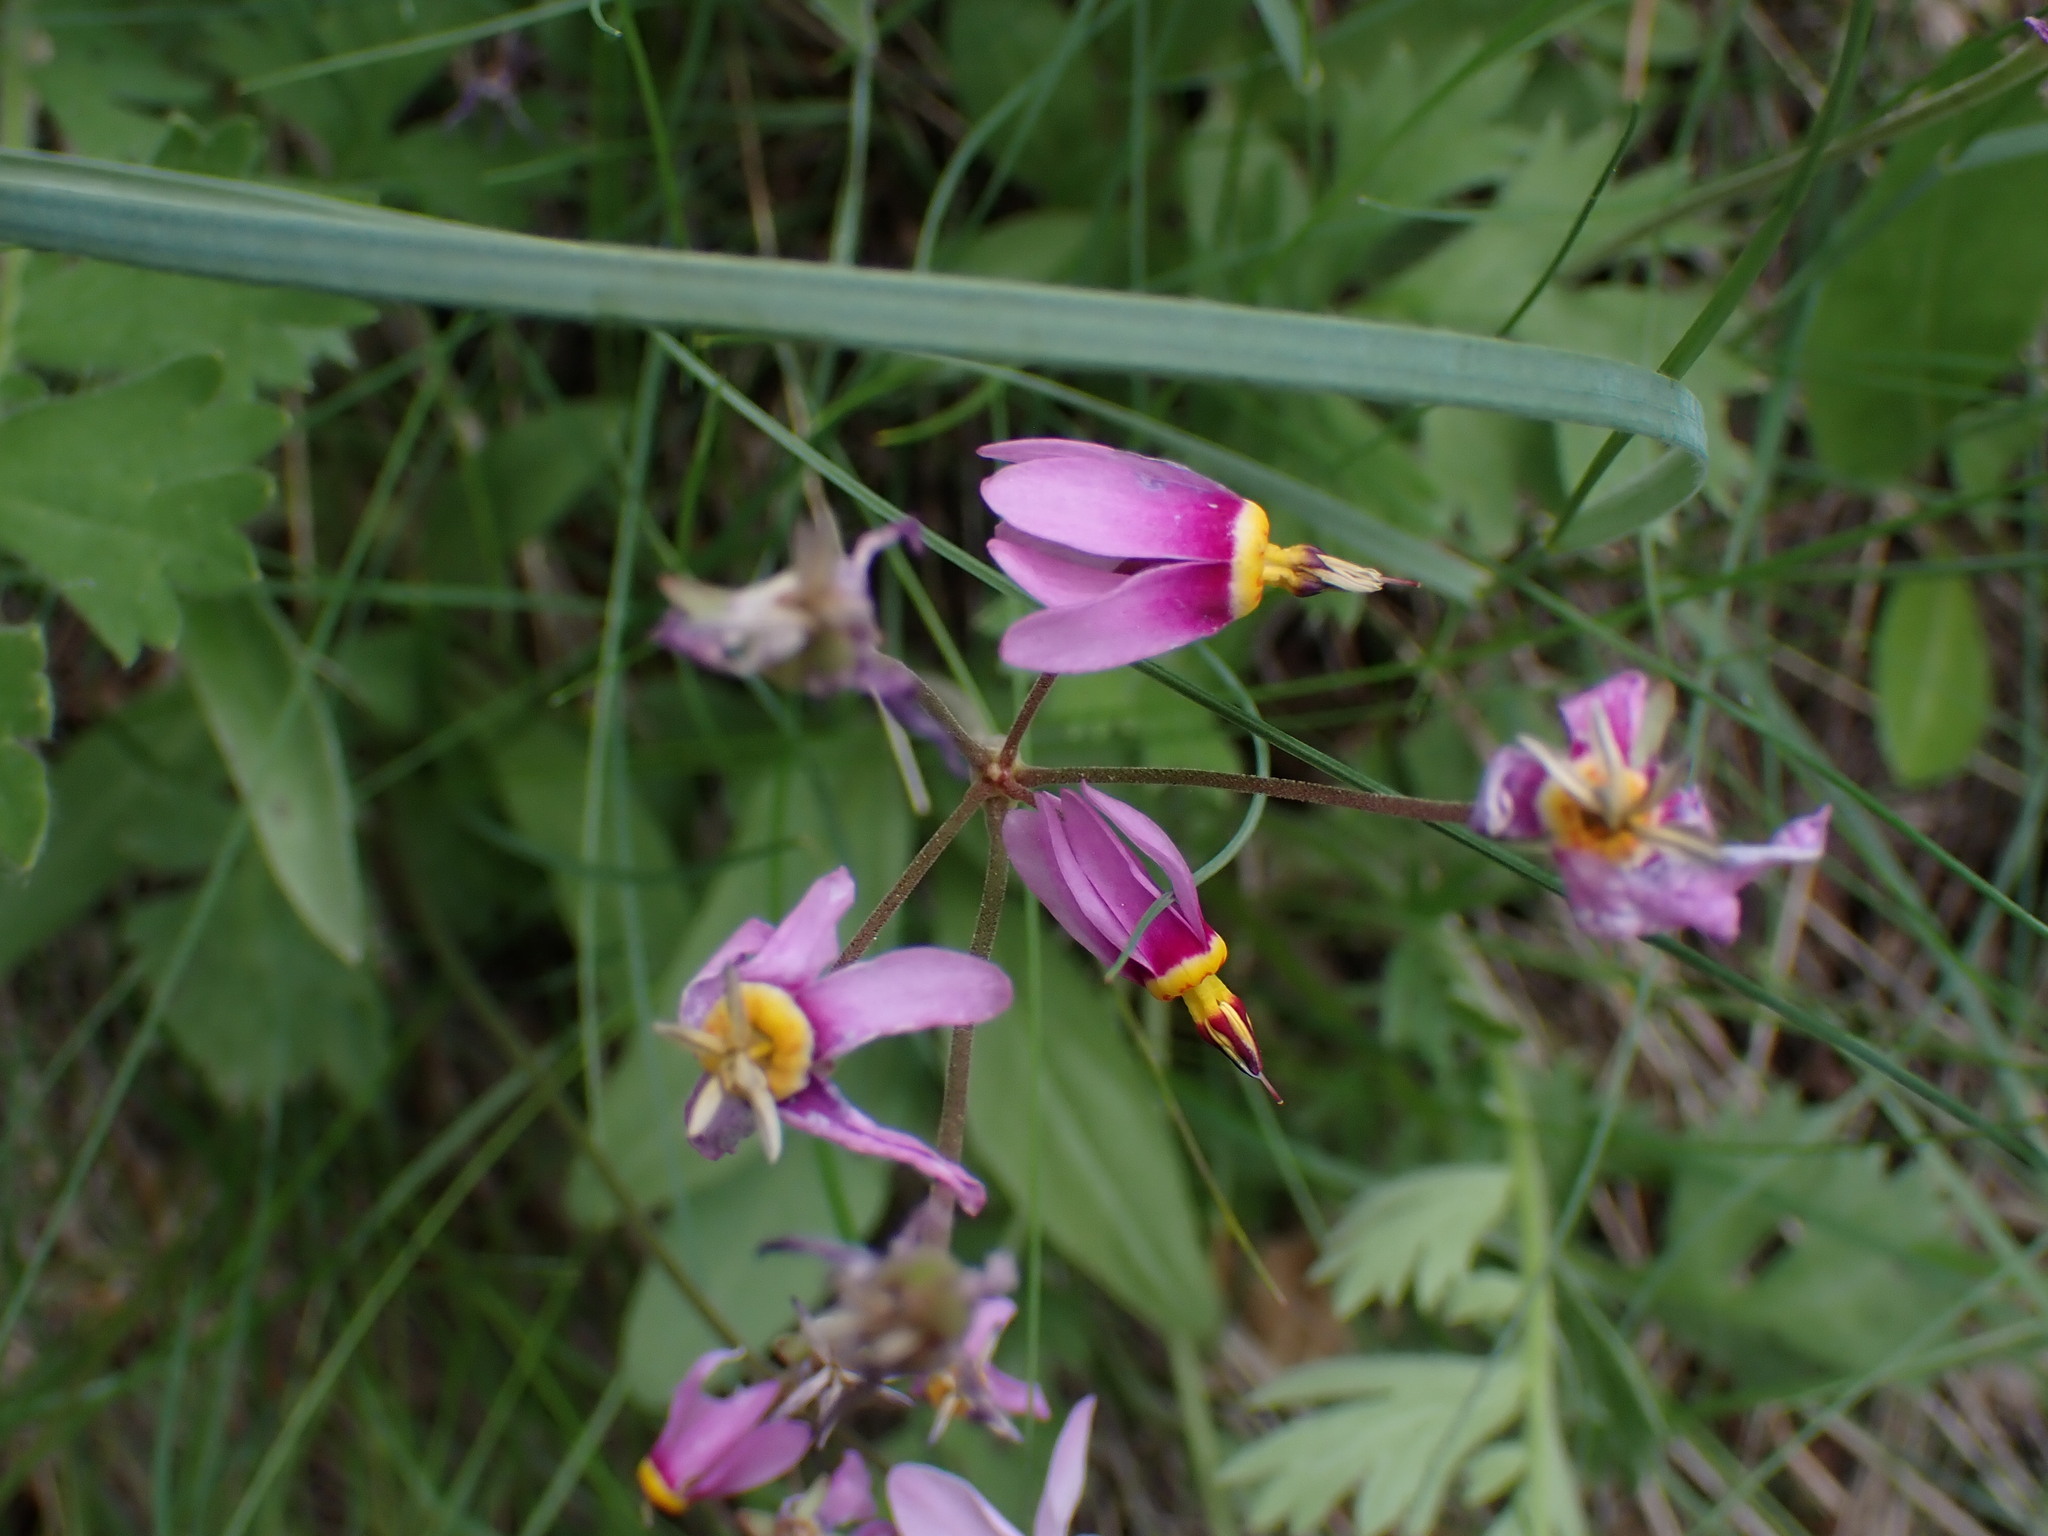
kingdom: Plantae
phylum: Tracheophyta
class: Magnoliopsida
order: Ericales
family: Primulaceae
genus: Dodecatheon
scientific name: Dodecatheon pulchellum
